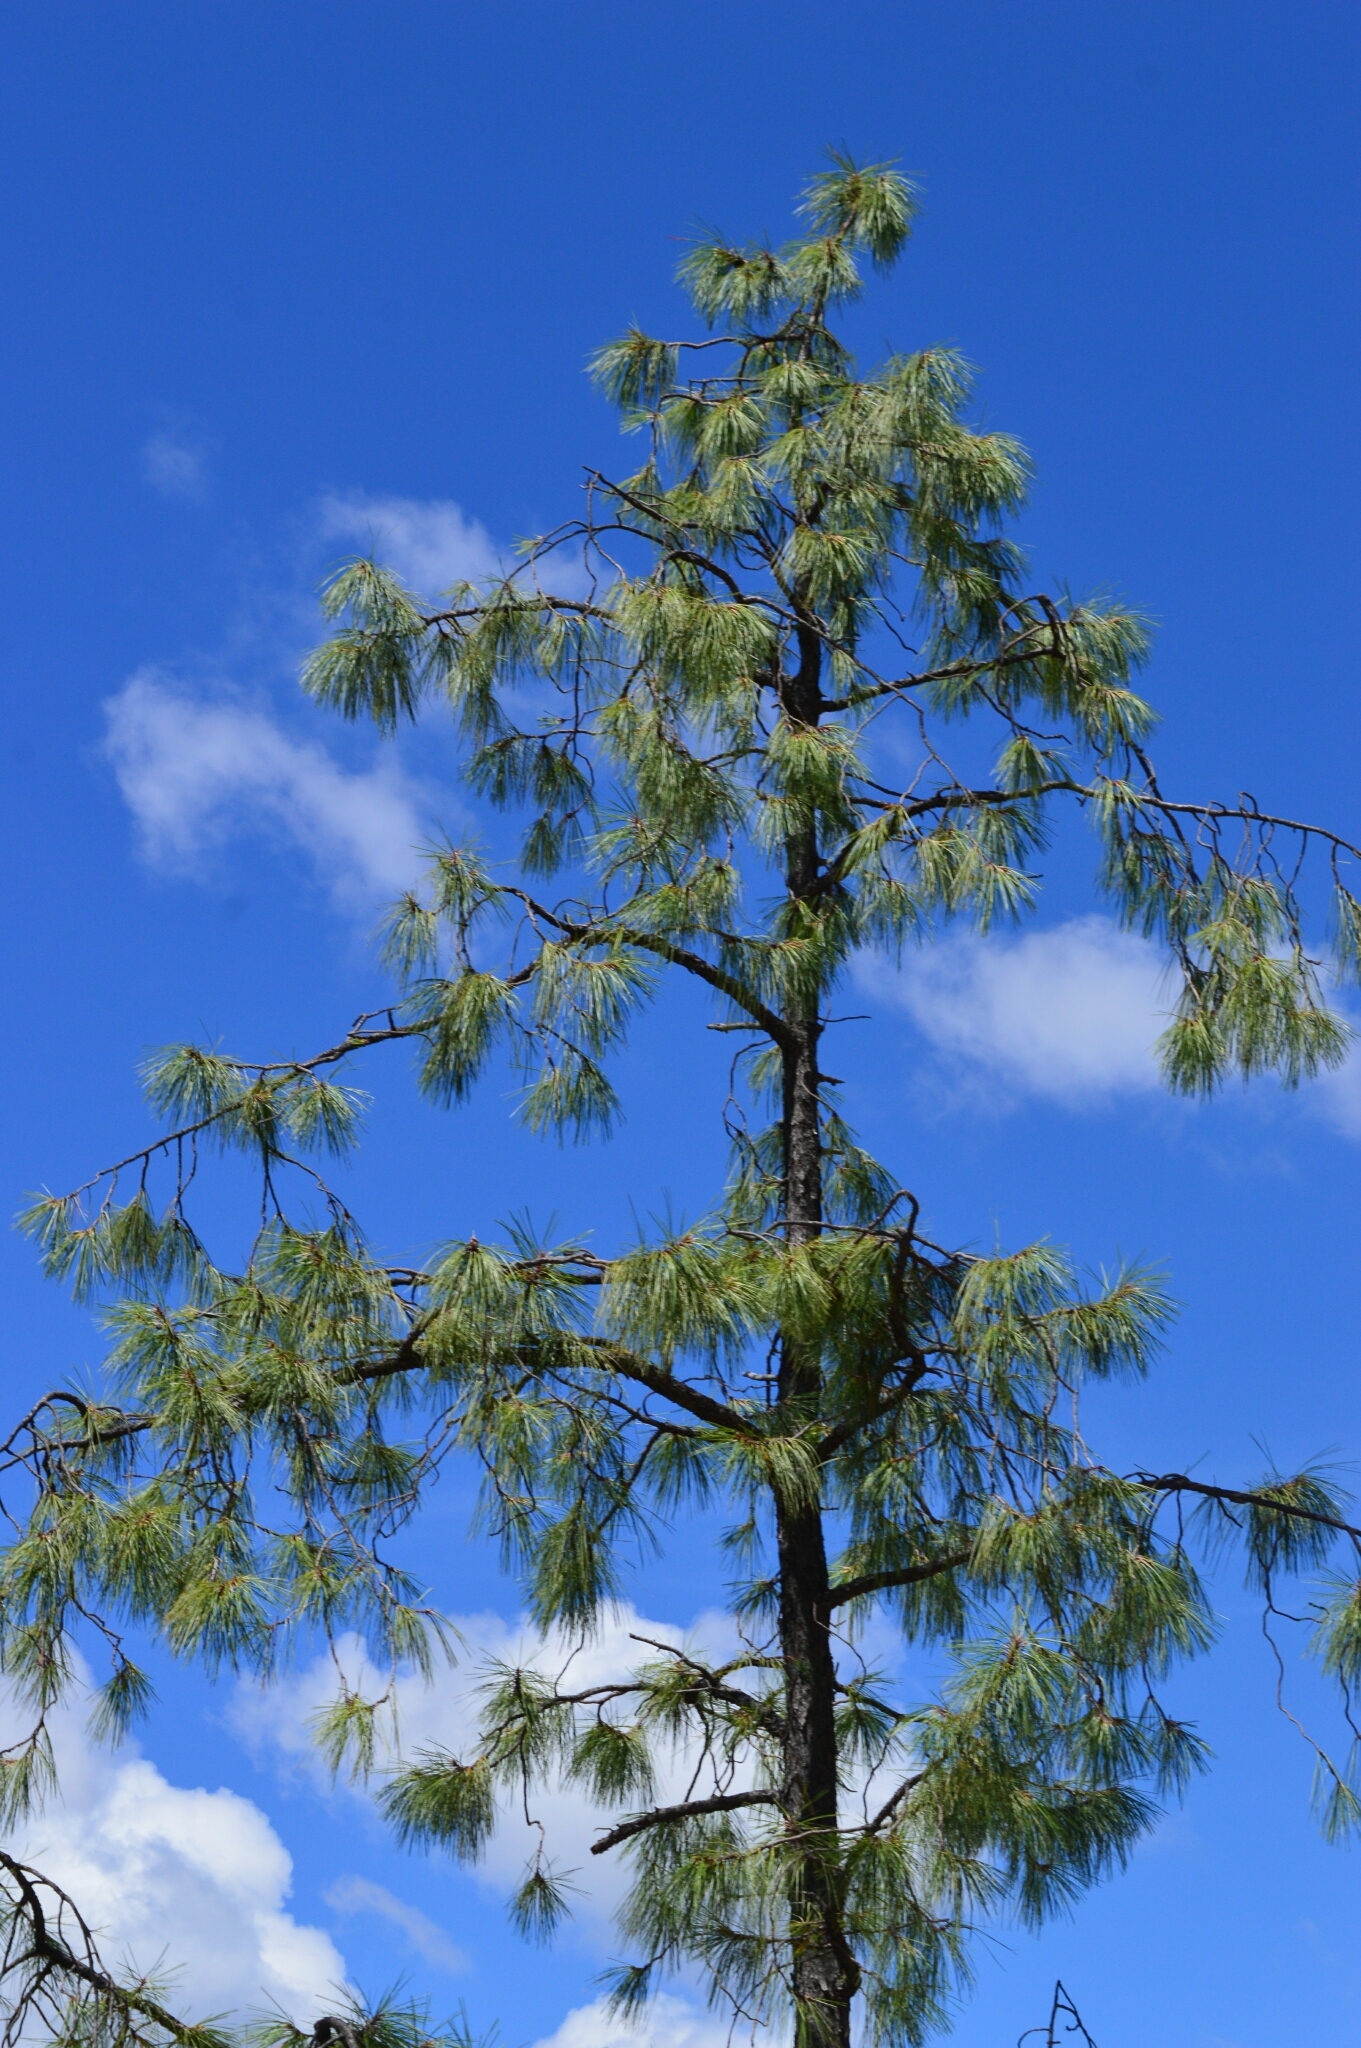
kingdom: Plantae
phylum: Tracheophyta
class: Pinopsida
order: Pinales
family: Pinaceae
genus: Pinus
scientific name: Pinus luzmariae
